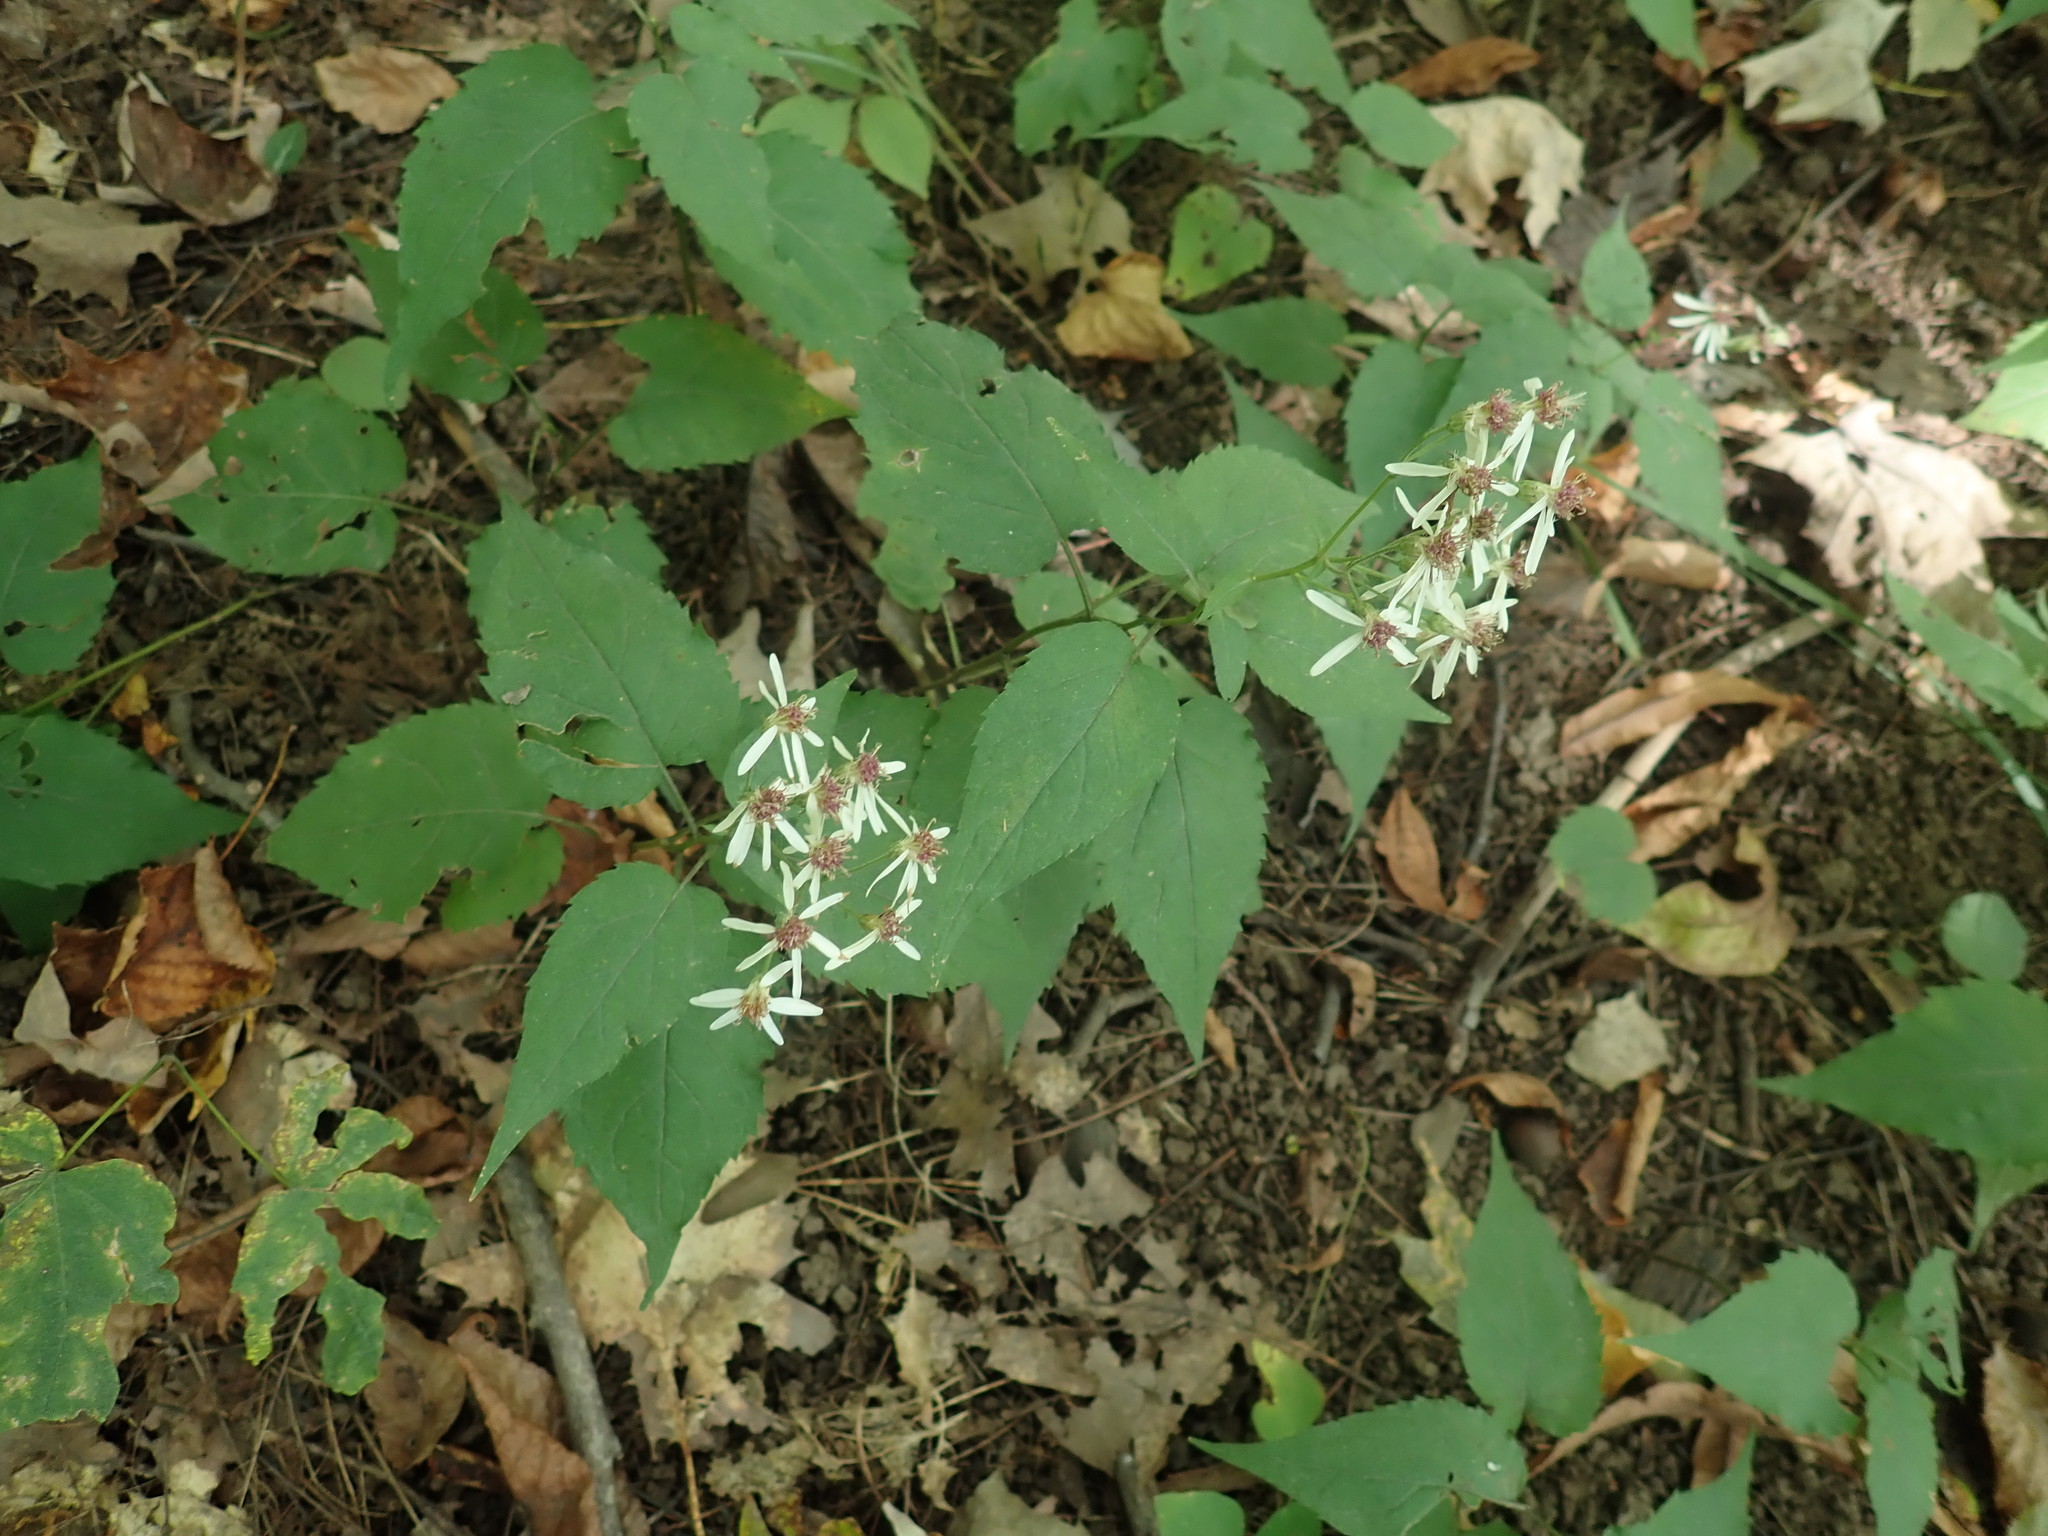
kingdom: Plantae
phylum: Tracheophyta
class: Magnoliopsida
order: Asterales
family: Asteraceae
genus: Eurybia
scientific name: Eurybia divaricata
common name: White wood aster
